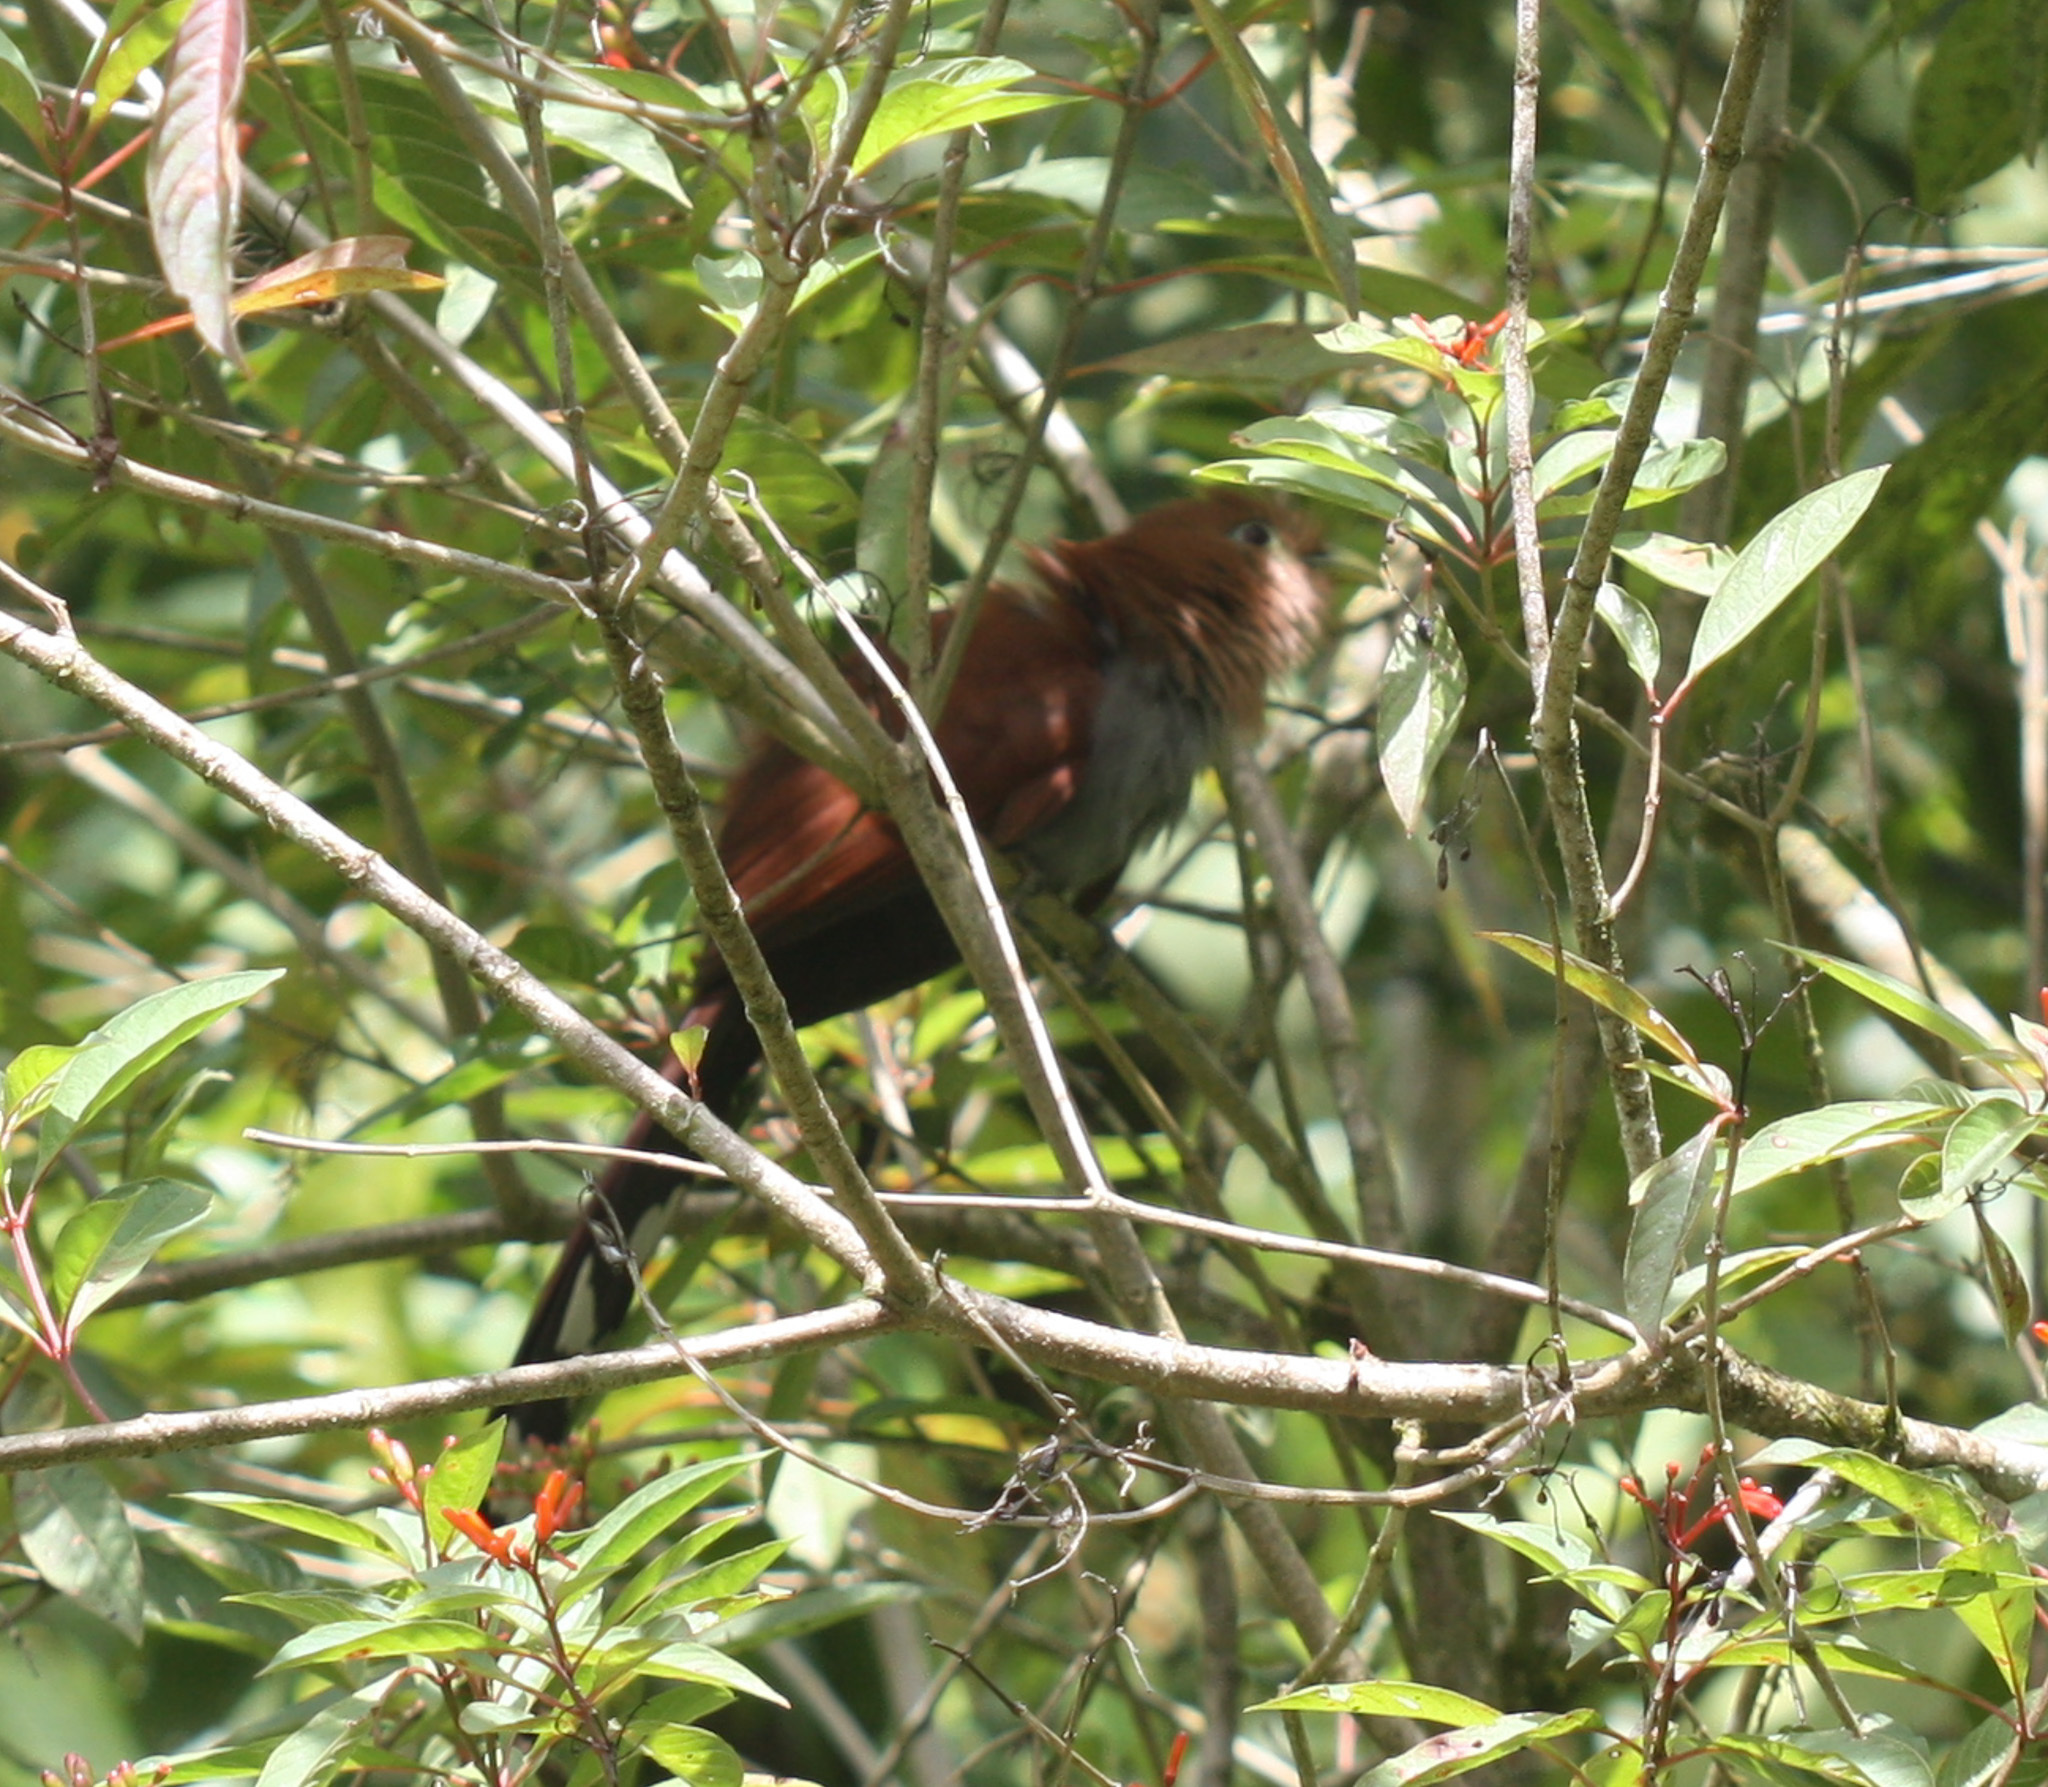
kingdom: Animalia
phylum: Chordata
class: Aves
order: Cuculiformes
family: Cuculidae
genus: Piaya
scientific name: Piaya cayana
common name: Squirrel cuckoo
